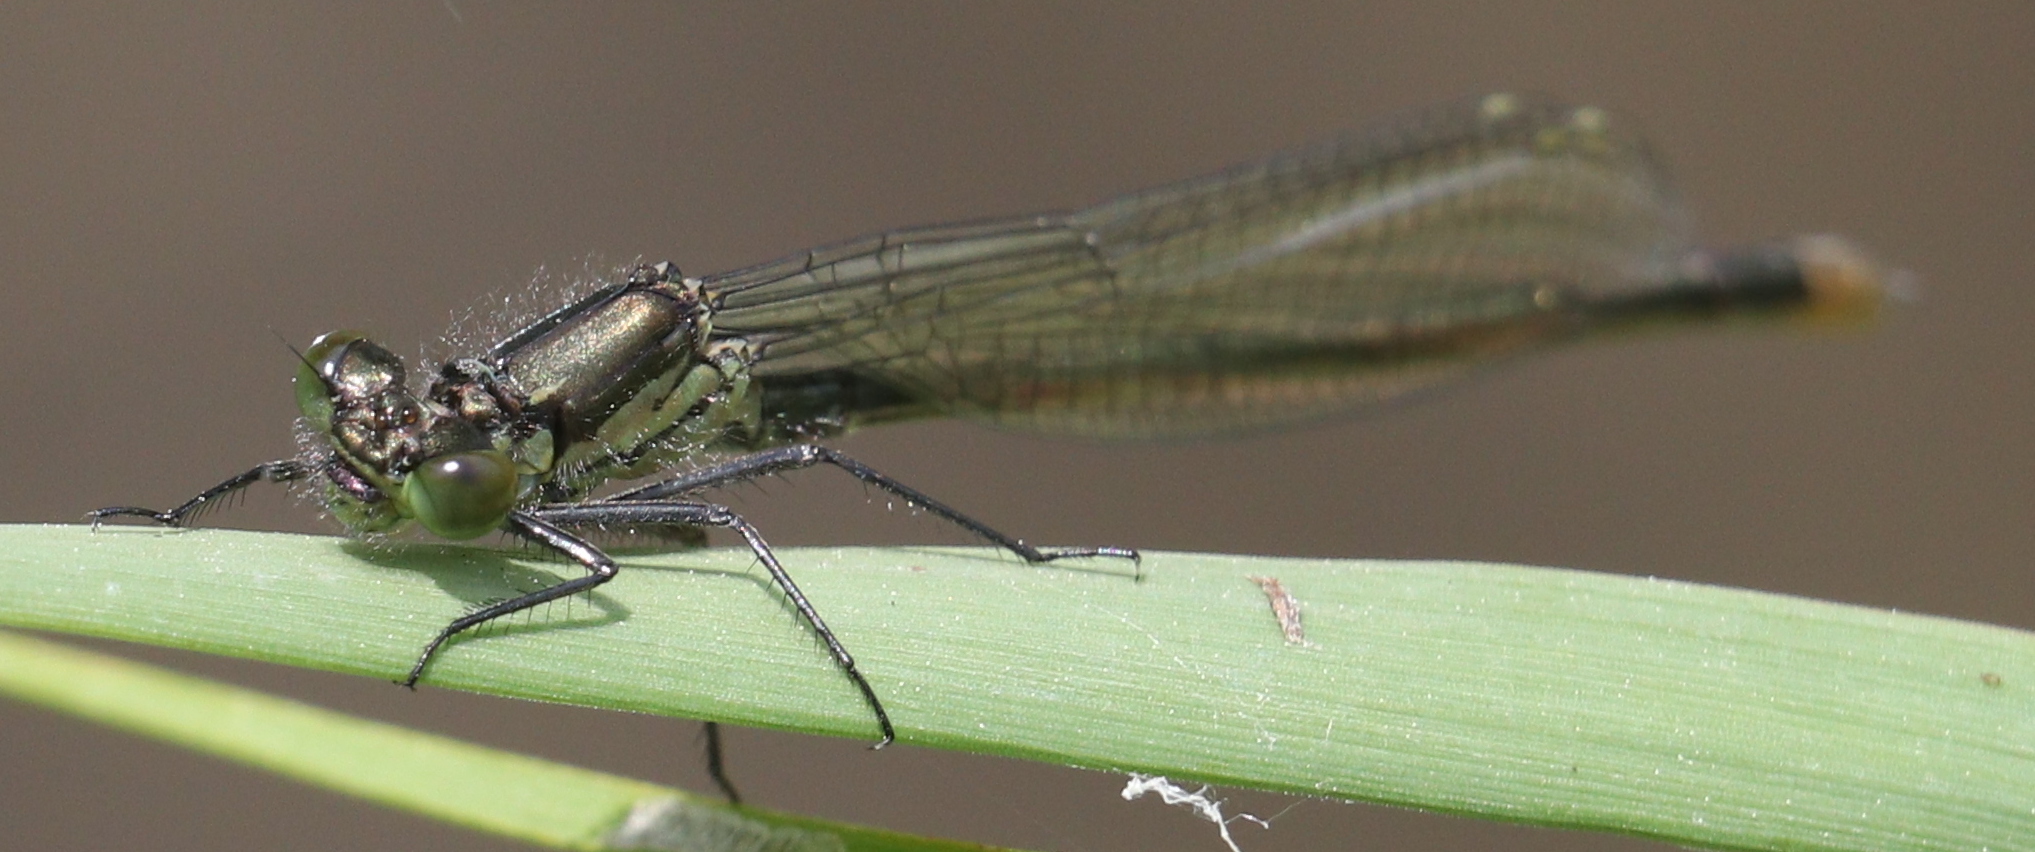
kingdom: Animalia
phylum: Arthropoda
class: Insecta
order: Odonata
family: Coenagrionidae
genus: Erythromma
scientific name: Erythromma najas
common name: Red-eyed damselfly
